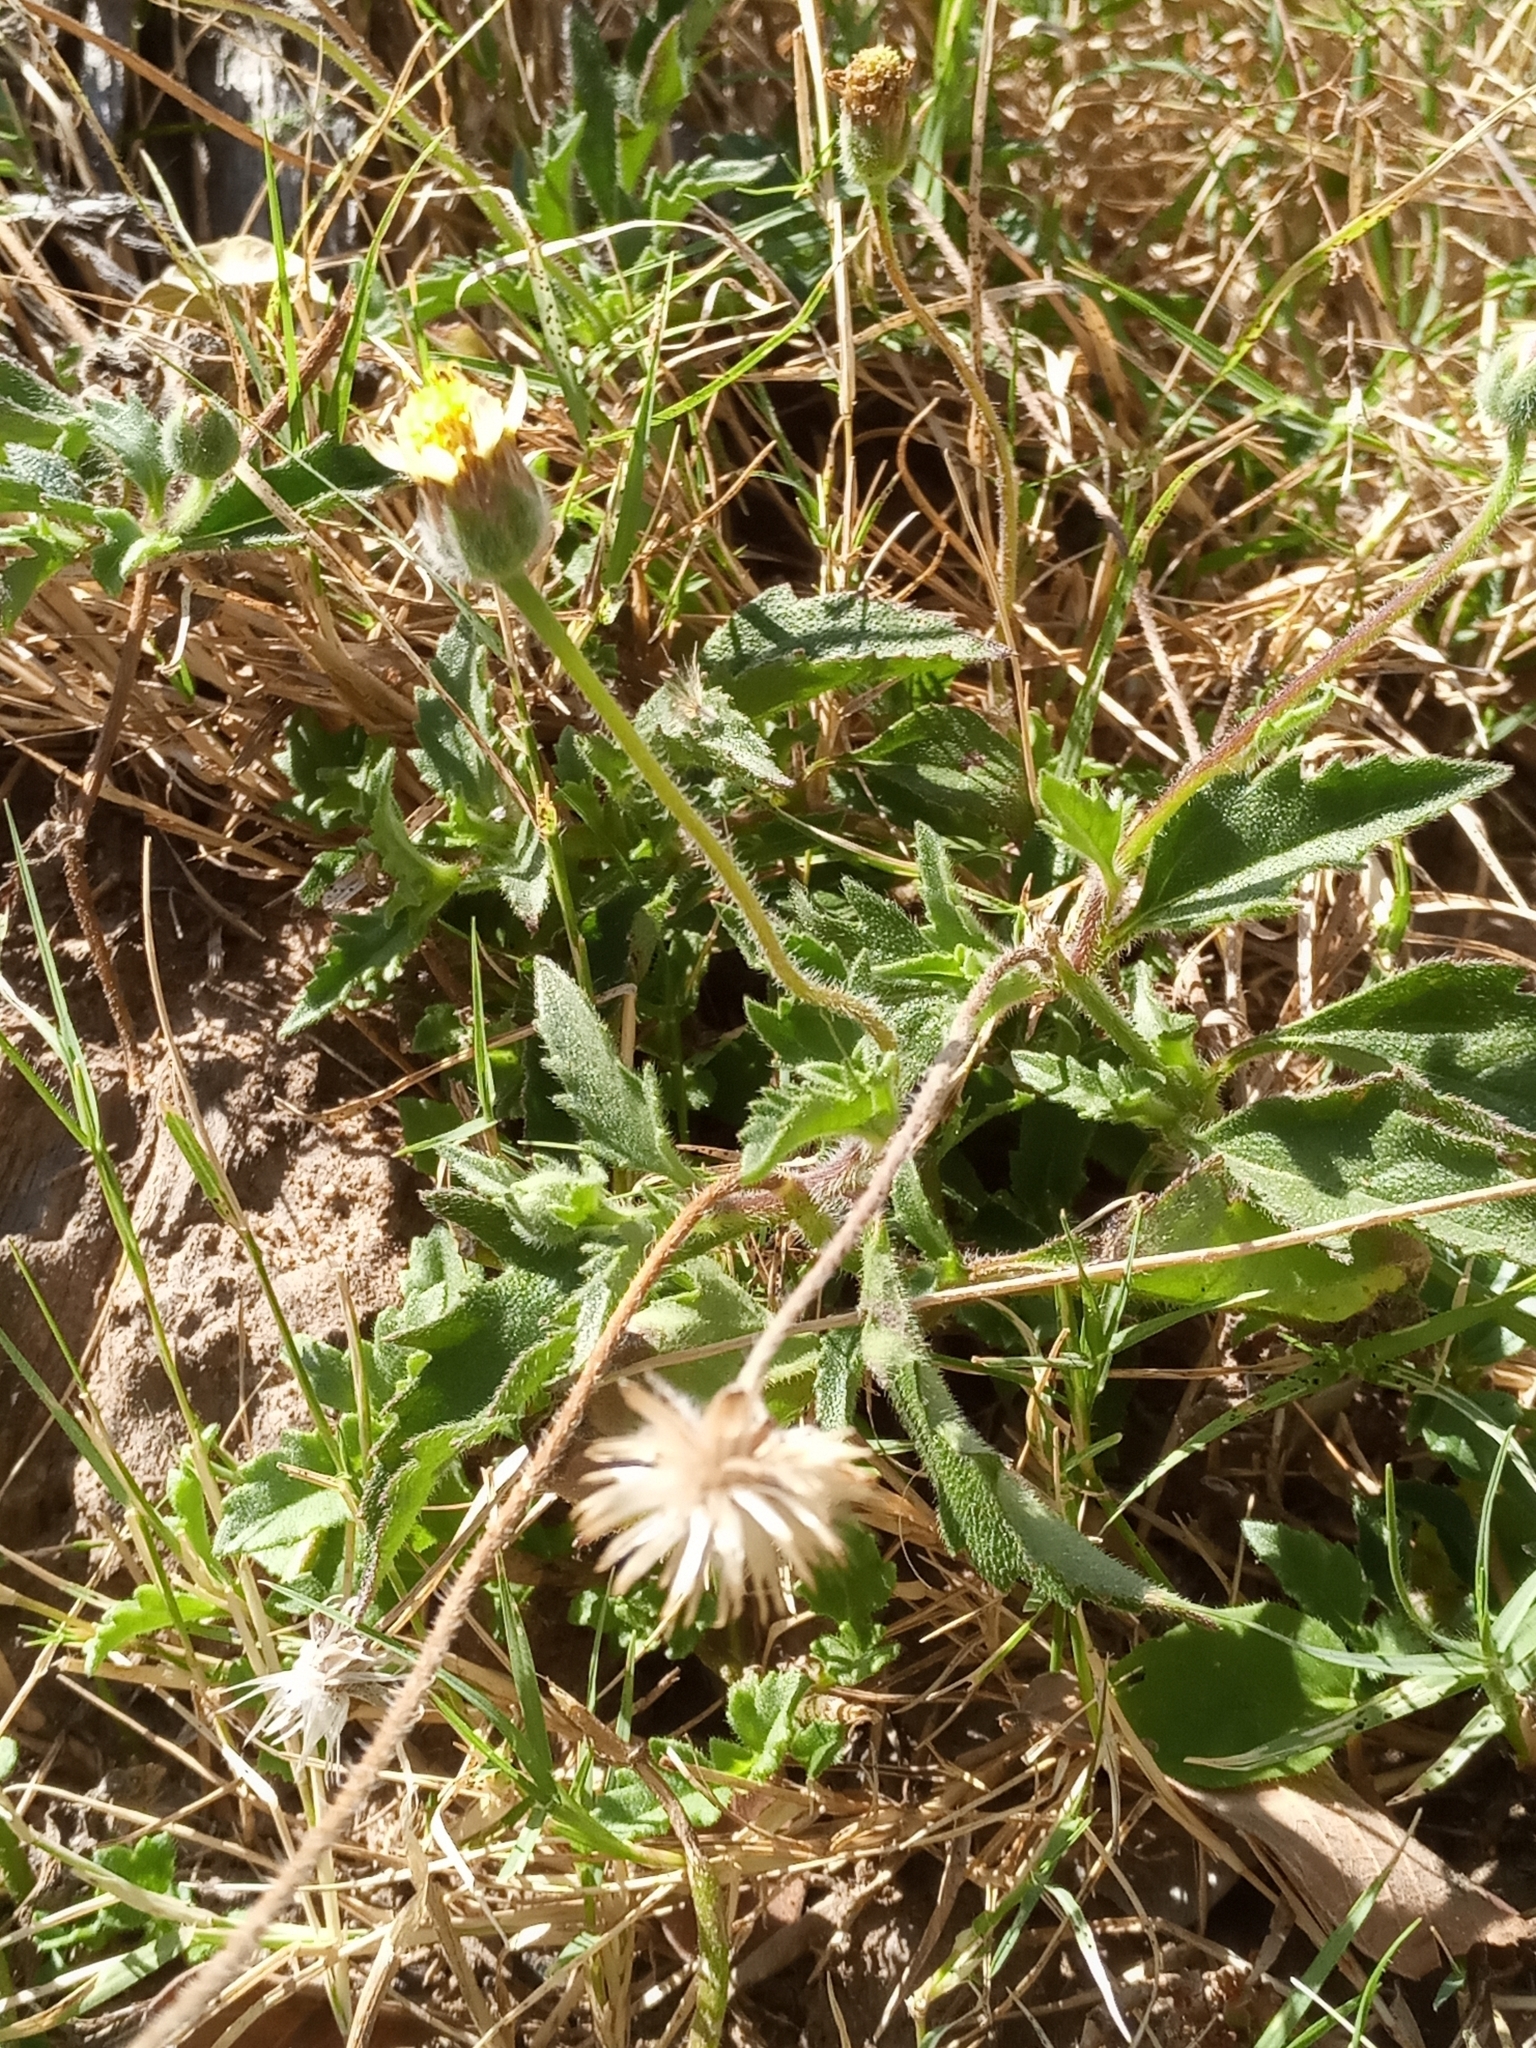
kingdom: Plantae
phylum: Tracheophyta
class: Magnoliopsida
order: Asterales
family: Asteraceae
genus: Tridax
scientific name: Tridax procumbens
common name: Coatbuttons
